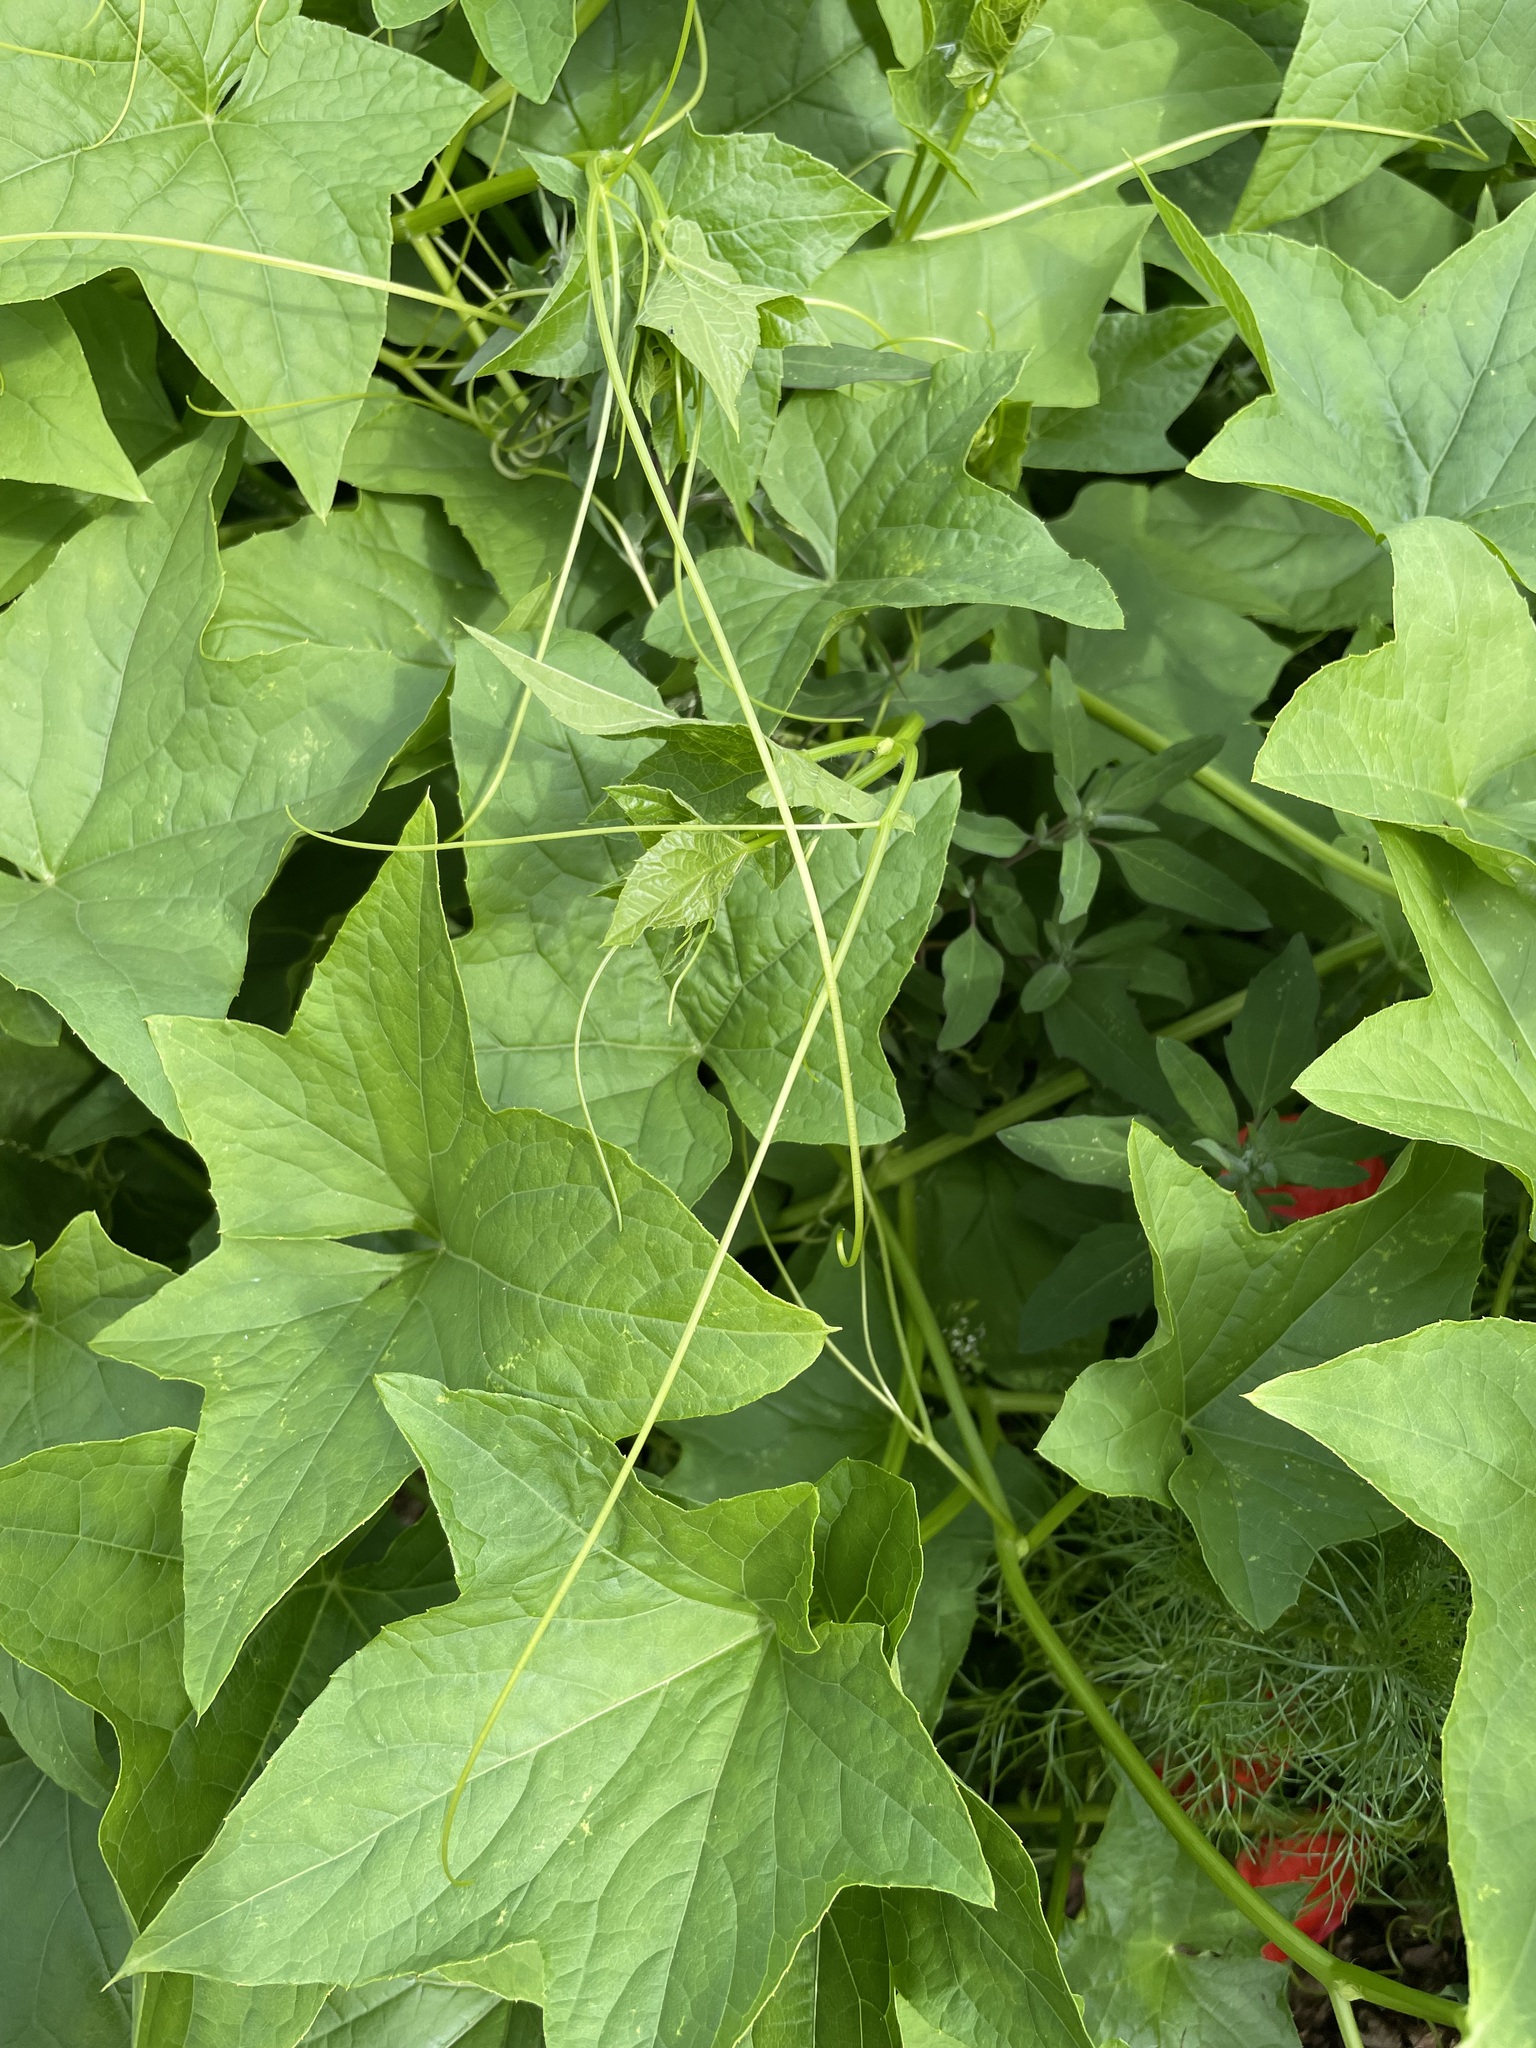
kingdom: Plantae
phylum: Tracheophyta
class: Magnoliopsida
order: Cucurbitales
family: Cucurbitaceae
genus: Echinocystis
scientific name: Echinocystis lobata
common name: Wild cucumber
